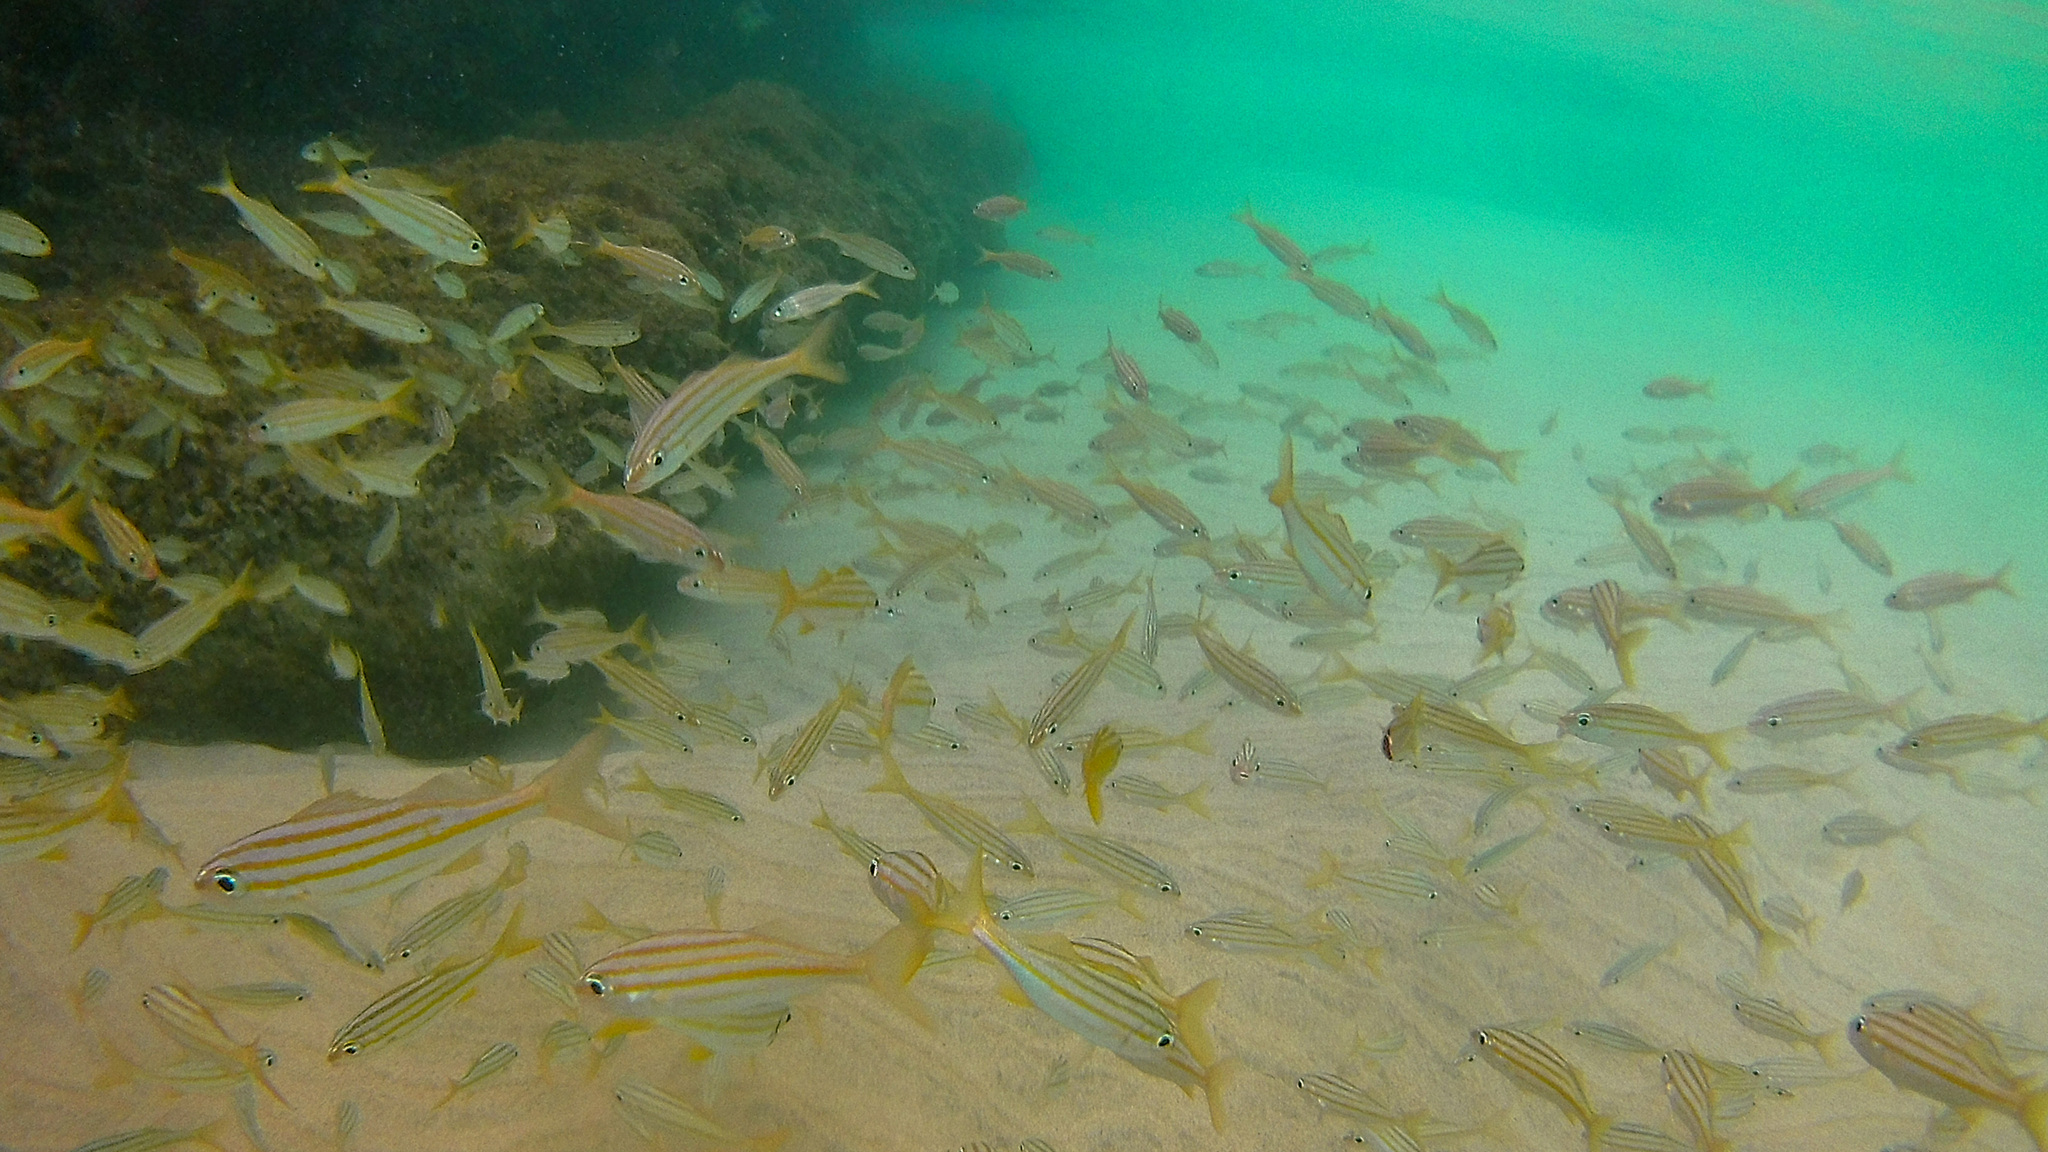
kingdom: Animalia
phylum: Chordata
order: Perciformes
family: Haemulidae
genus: Haemulon
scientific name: Haemulon chrysargyreum
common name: Smallmouth grunt
